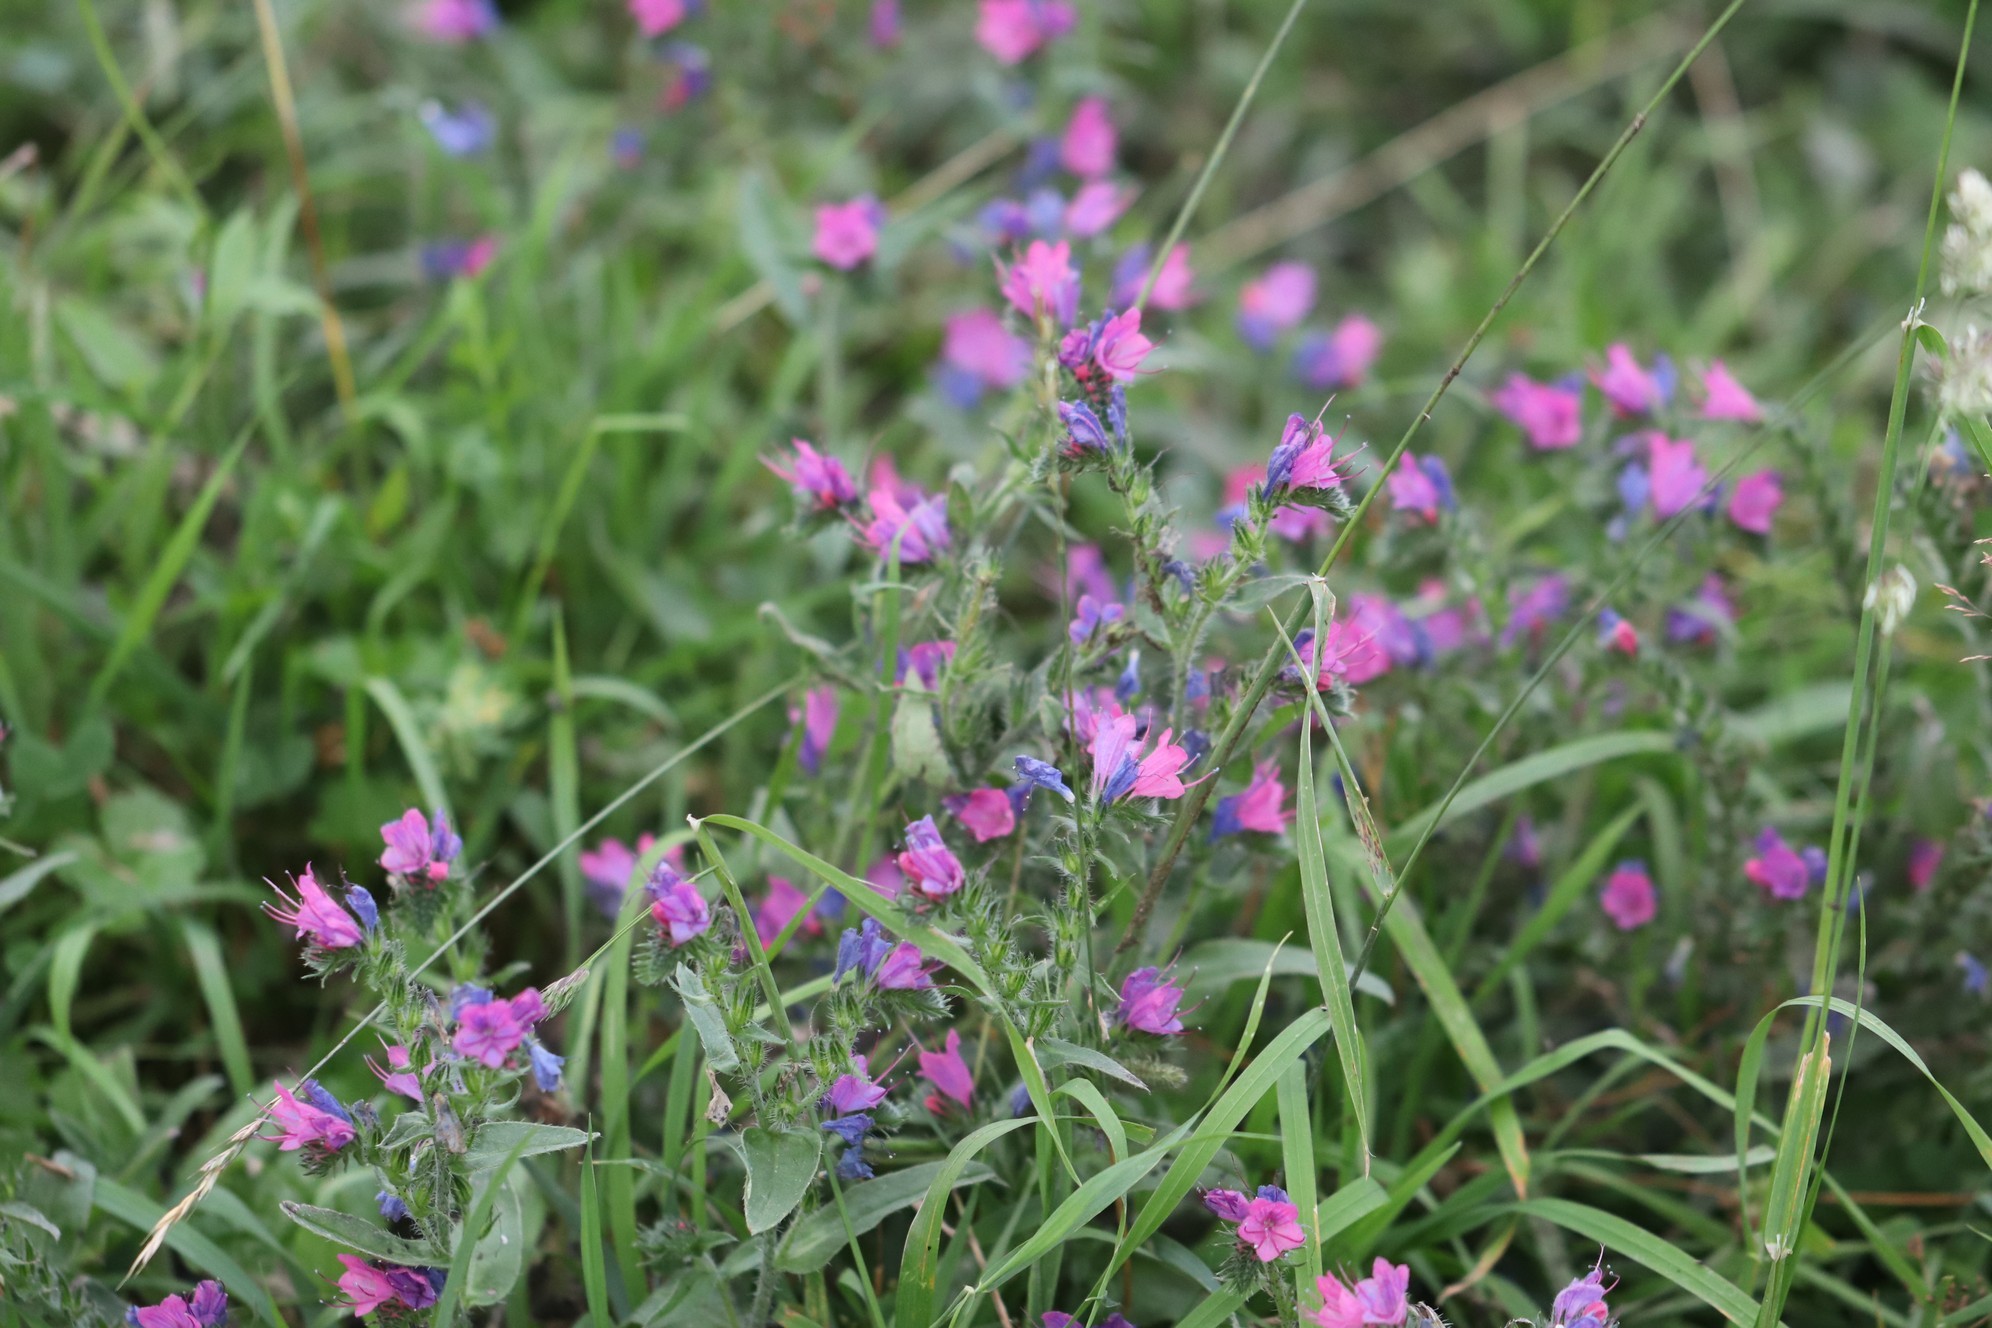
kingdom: Plantae
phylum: Tracheophyta
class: Magnoliopsida
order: Boraginales
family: Boraginaceae
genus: Echium
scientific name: Echium vulgare
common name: Common viper's bugloss
